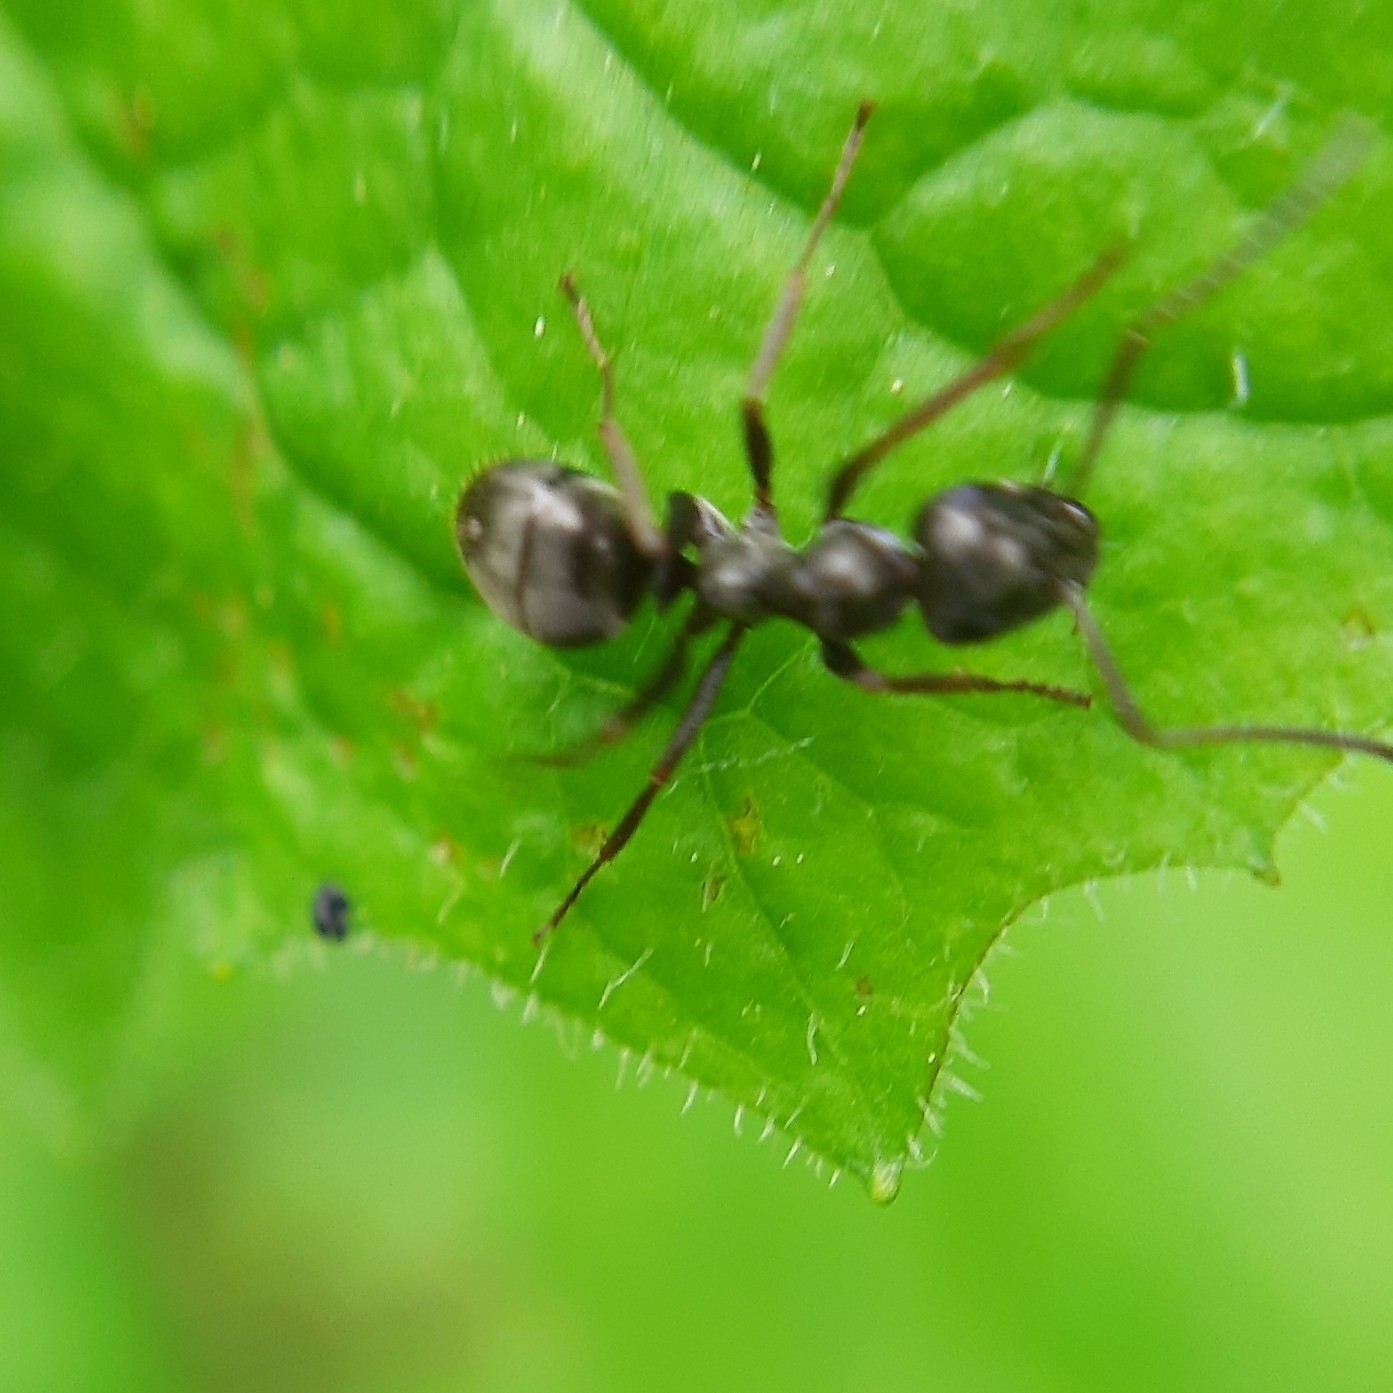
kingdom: Animalia
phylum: Arthropoda
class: Insecta
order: Hymenoptera
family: Formicidae
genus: Formica
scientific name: Formica
